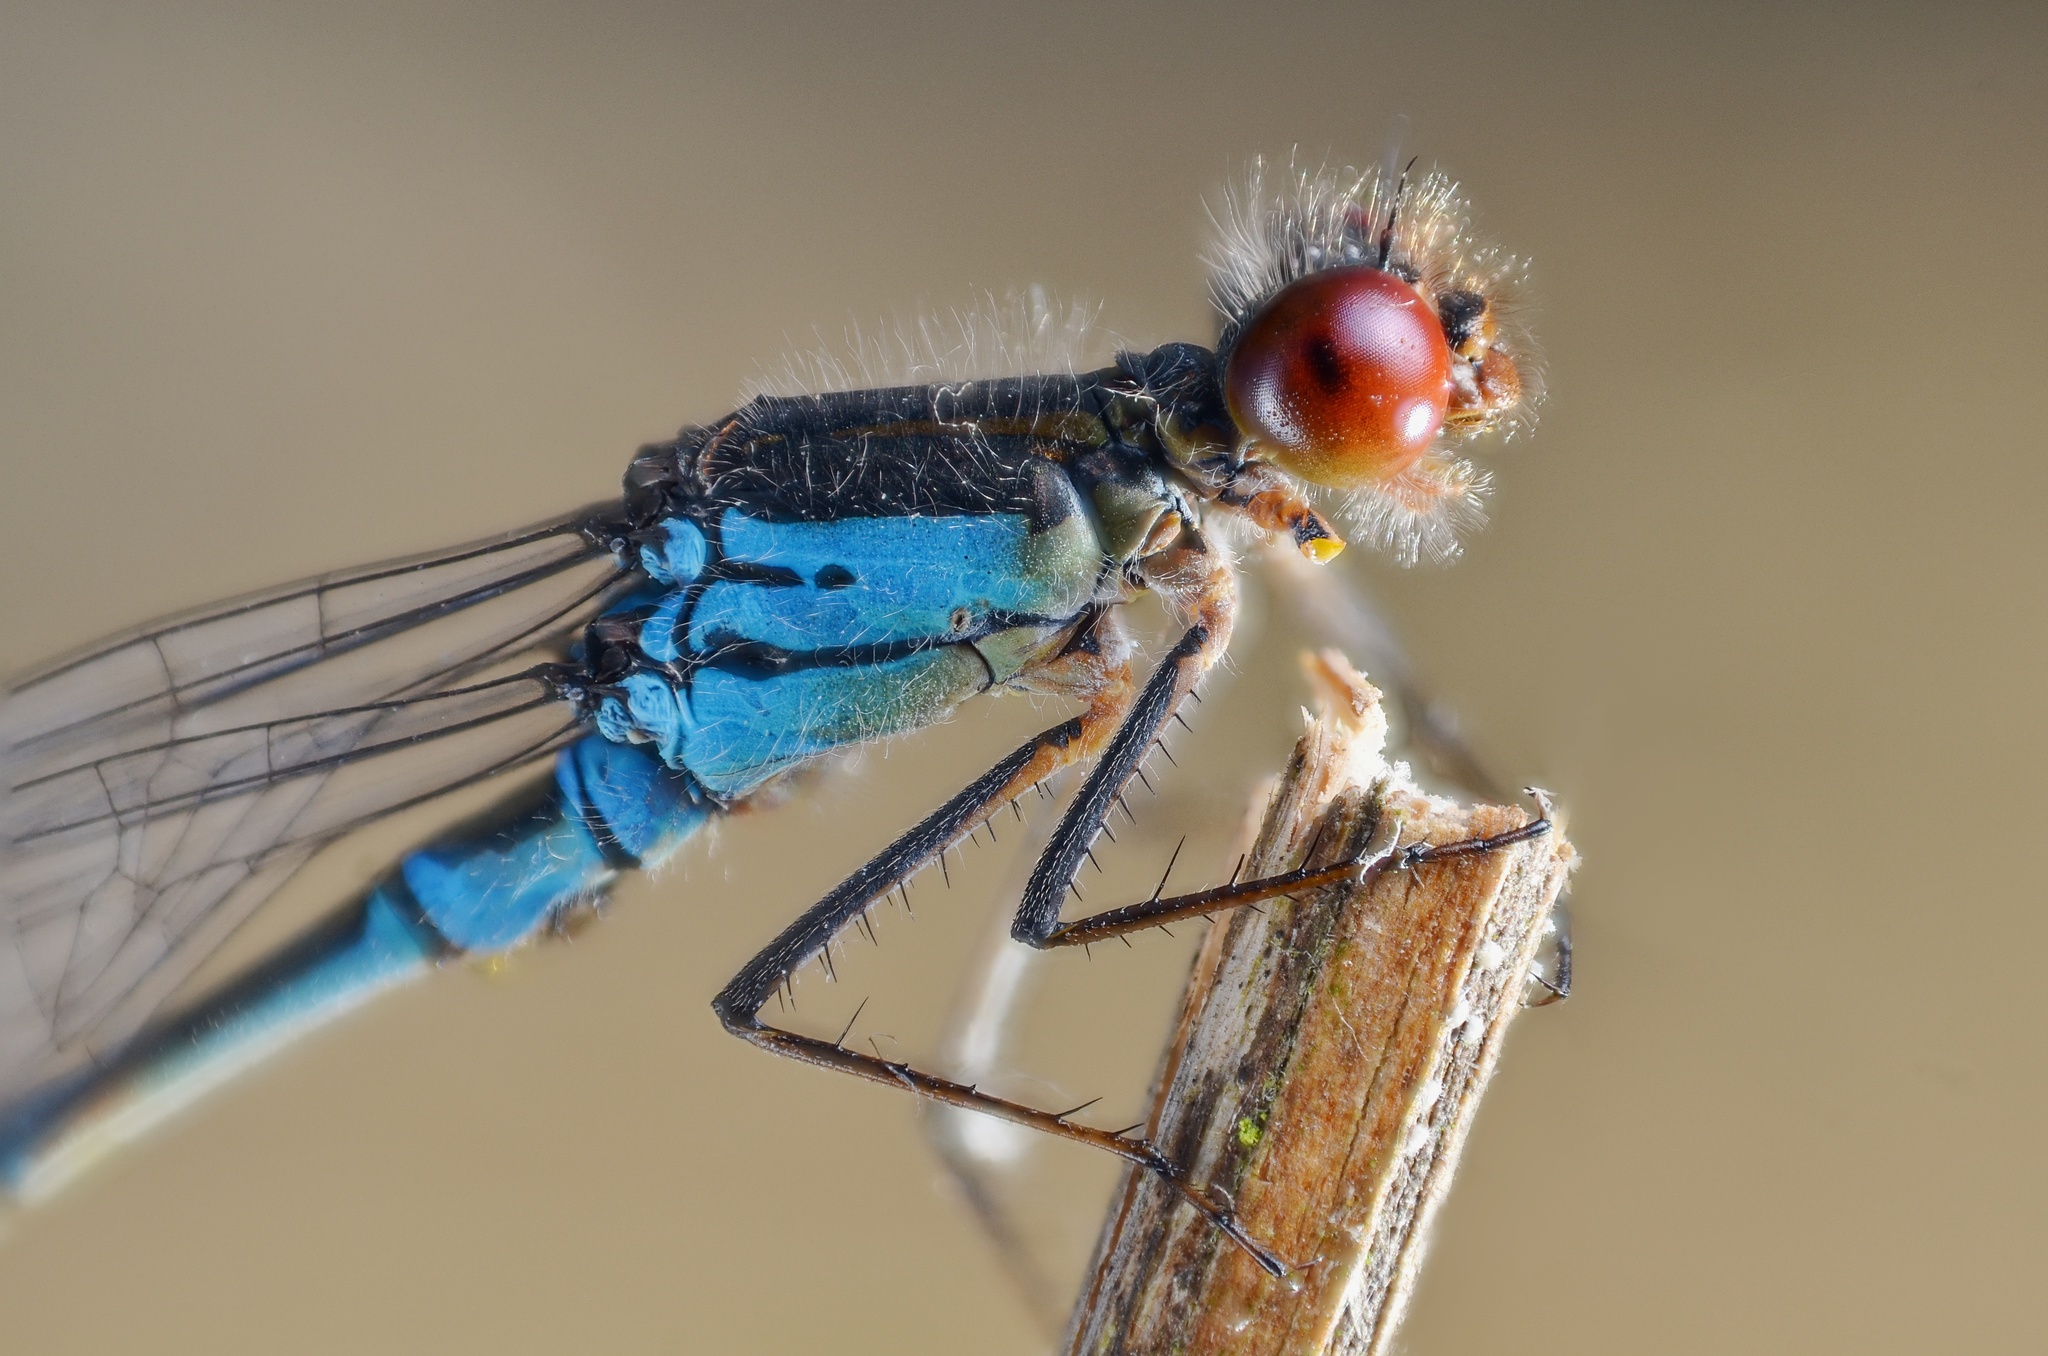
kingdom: Animalia
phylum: Arthropoda
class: Insecta
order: Odonata
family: Coenagrionidae
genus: Erythromma
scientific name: Erythromma viridulum
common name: Small red-eyed damselfly
